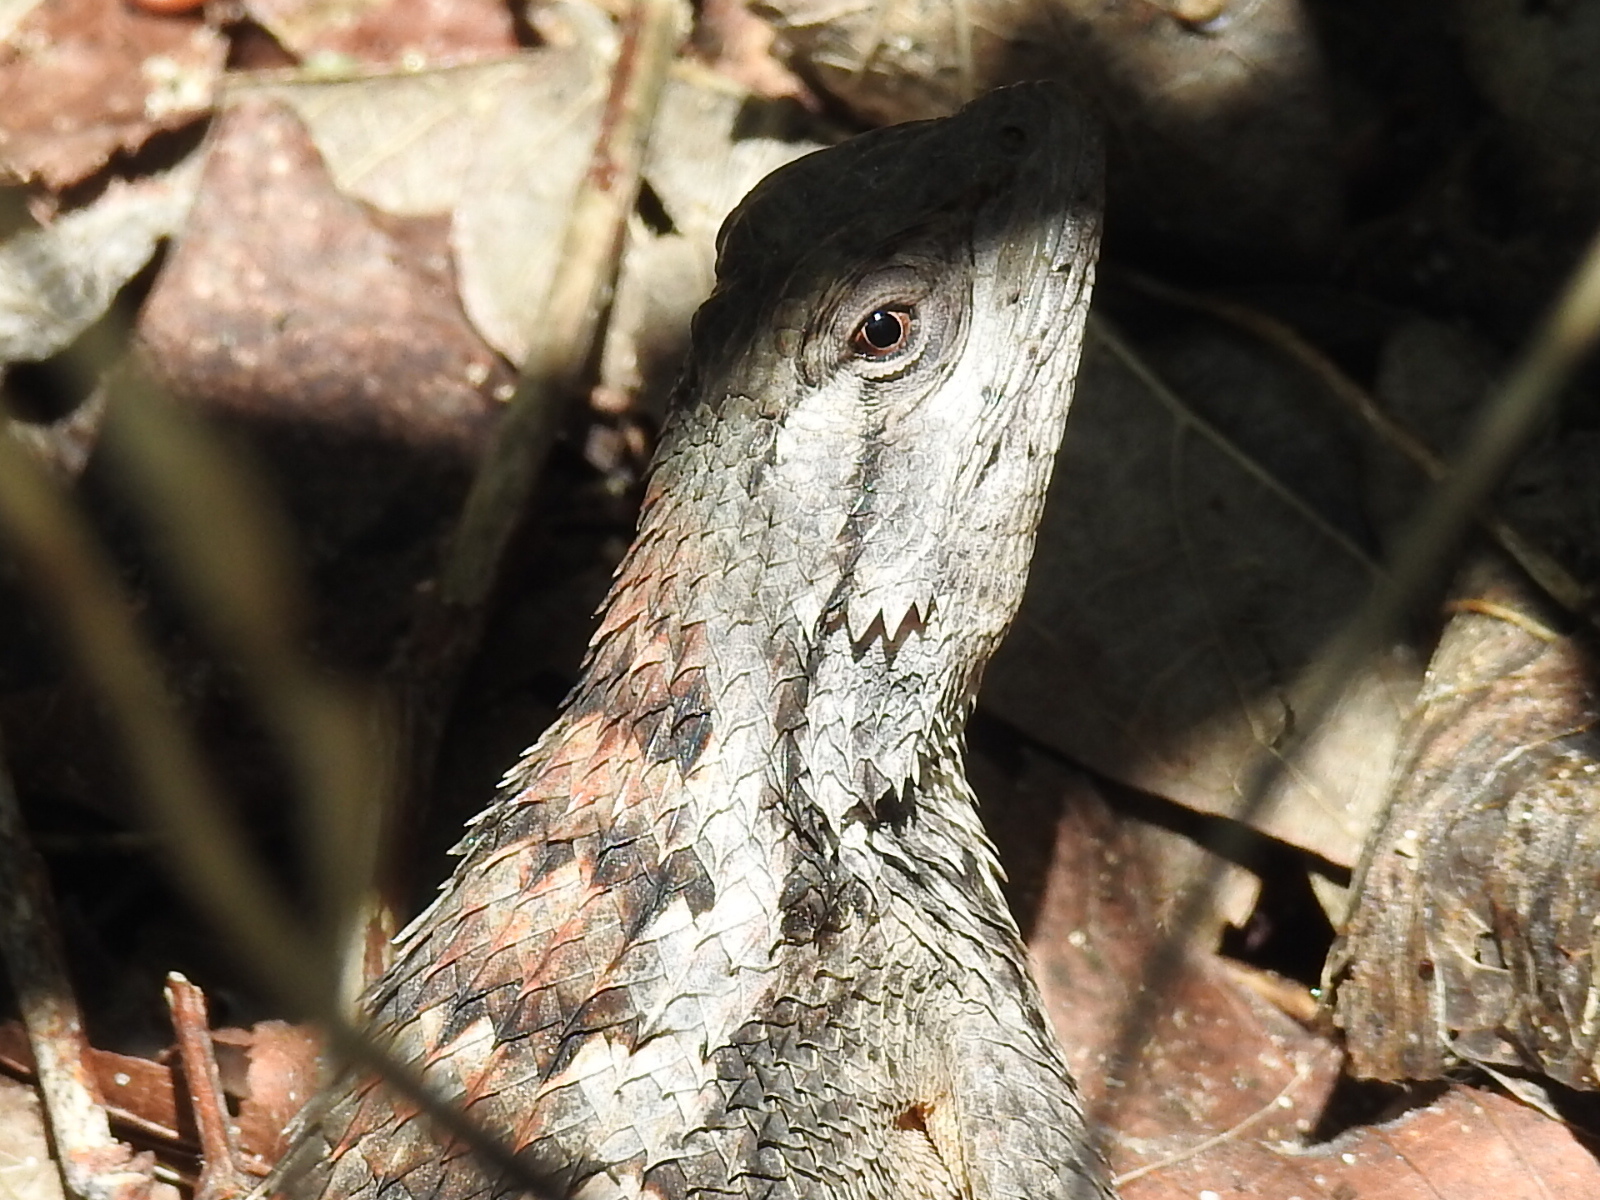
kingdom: Animalia
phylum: Chordata
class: Squamata
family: Phrynosomatidae
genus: Sceloporus
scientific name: Sceloporus olivaceus
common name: Texas spiny lizard
